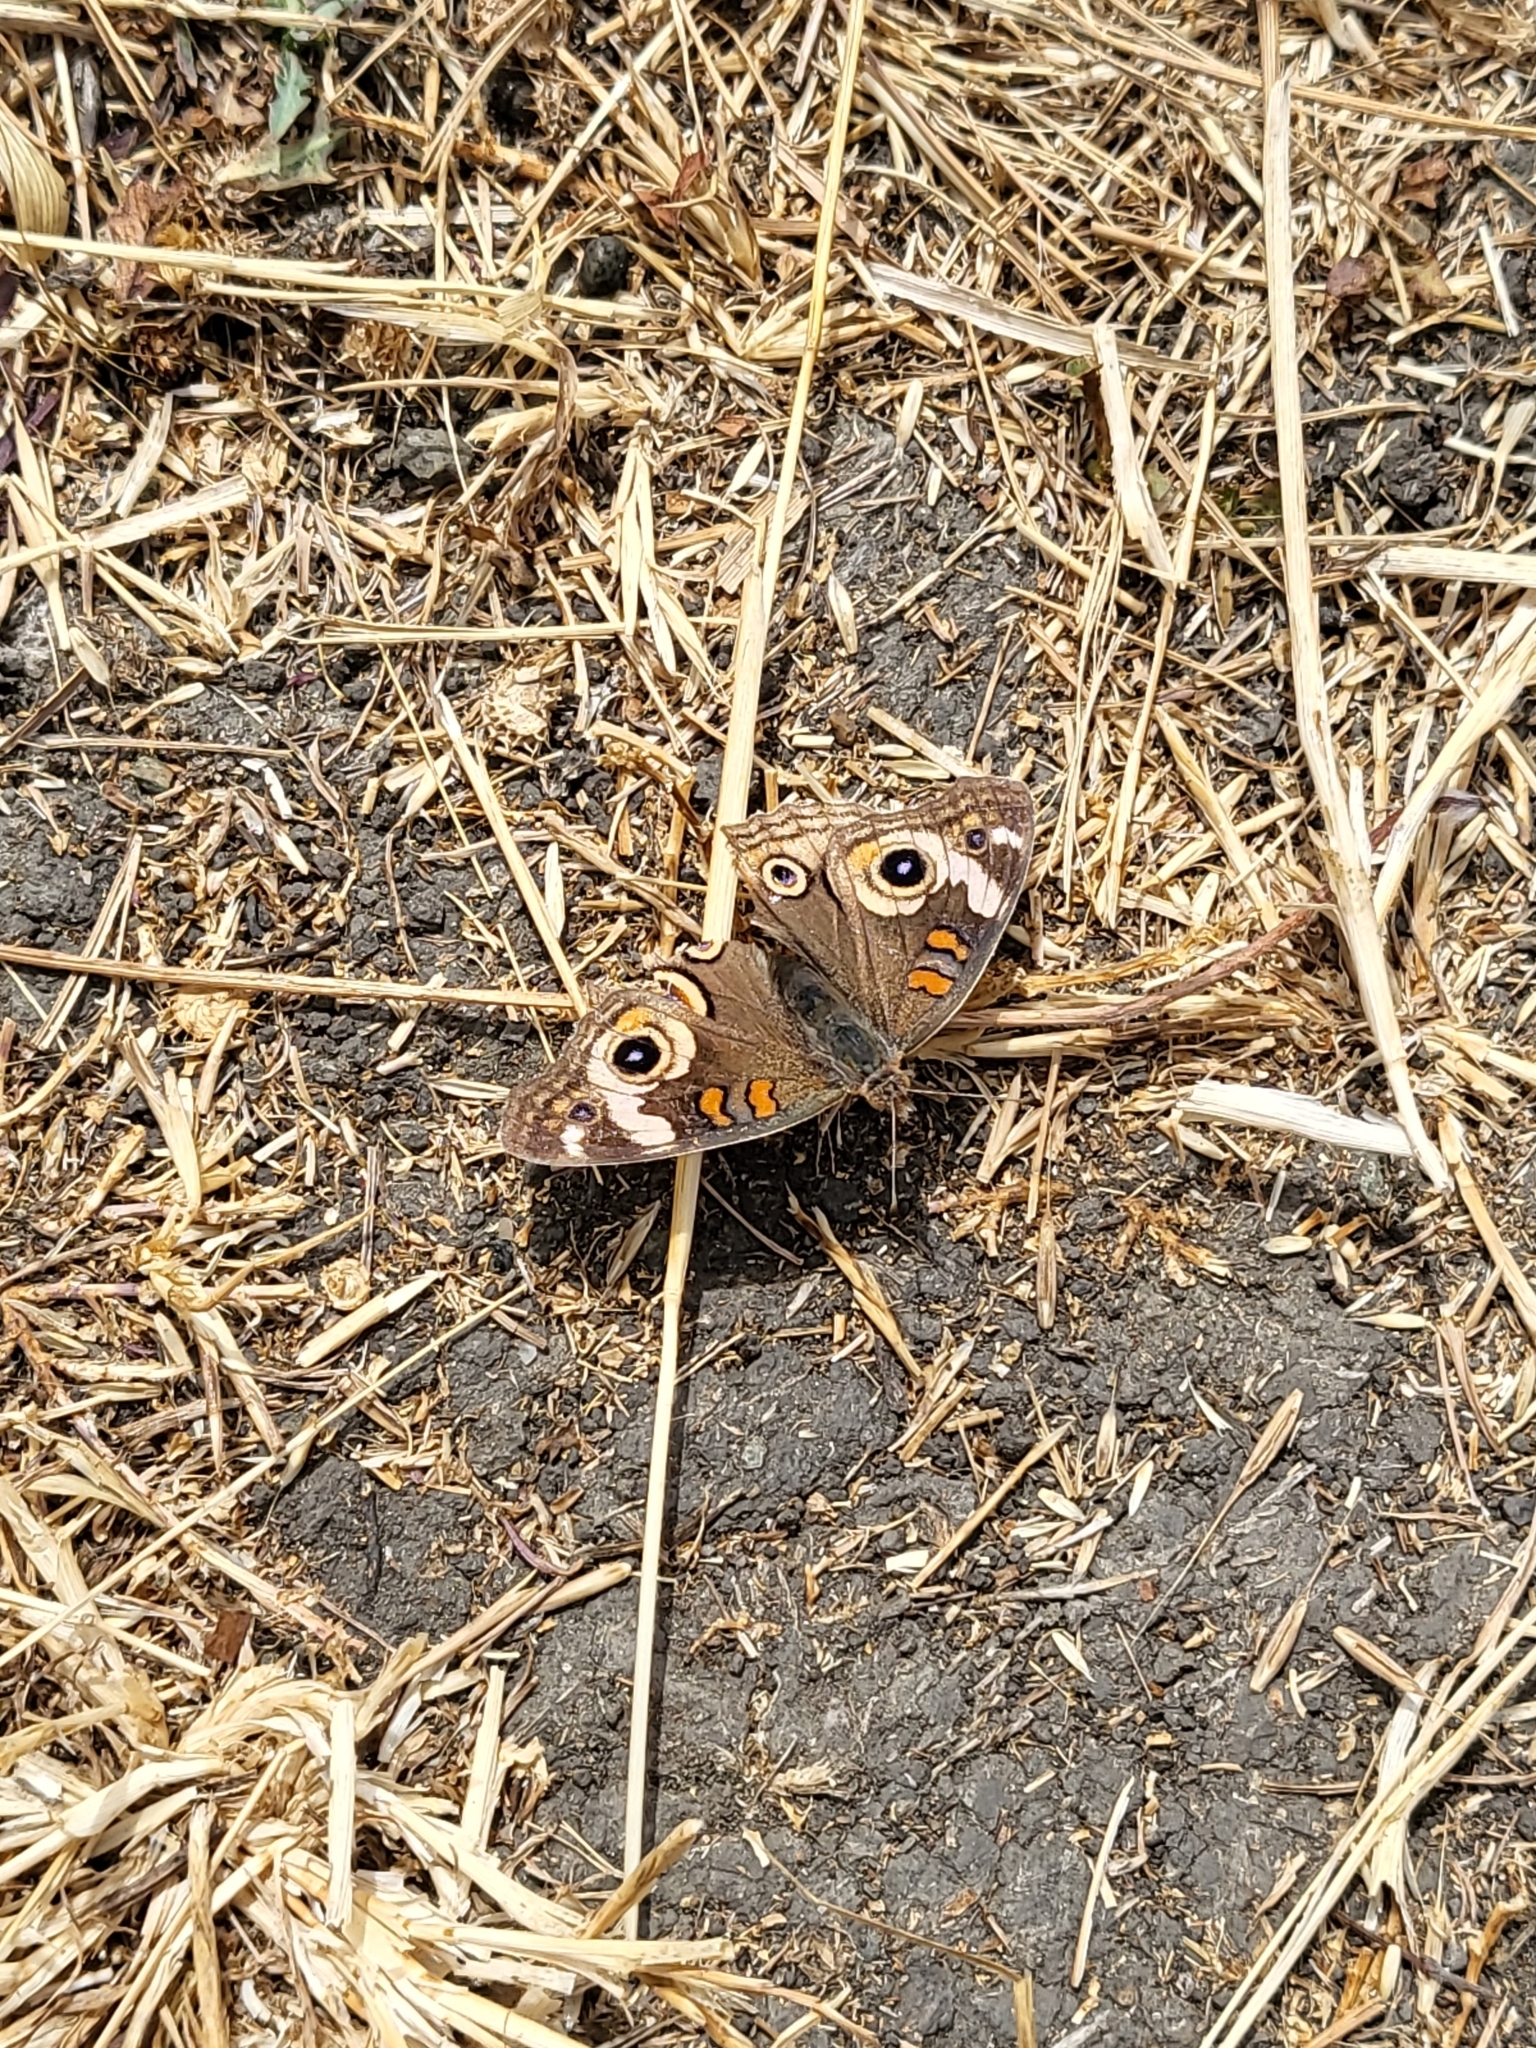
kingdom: Animalia
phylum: Arthropoda
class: Insecta
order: Lepidoptera
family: Nymphalidae
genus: Junonia
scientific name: Junonia grisea
